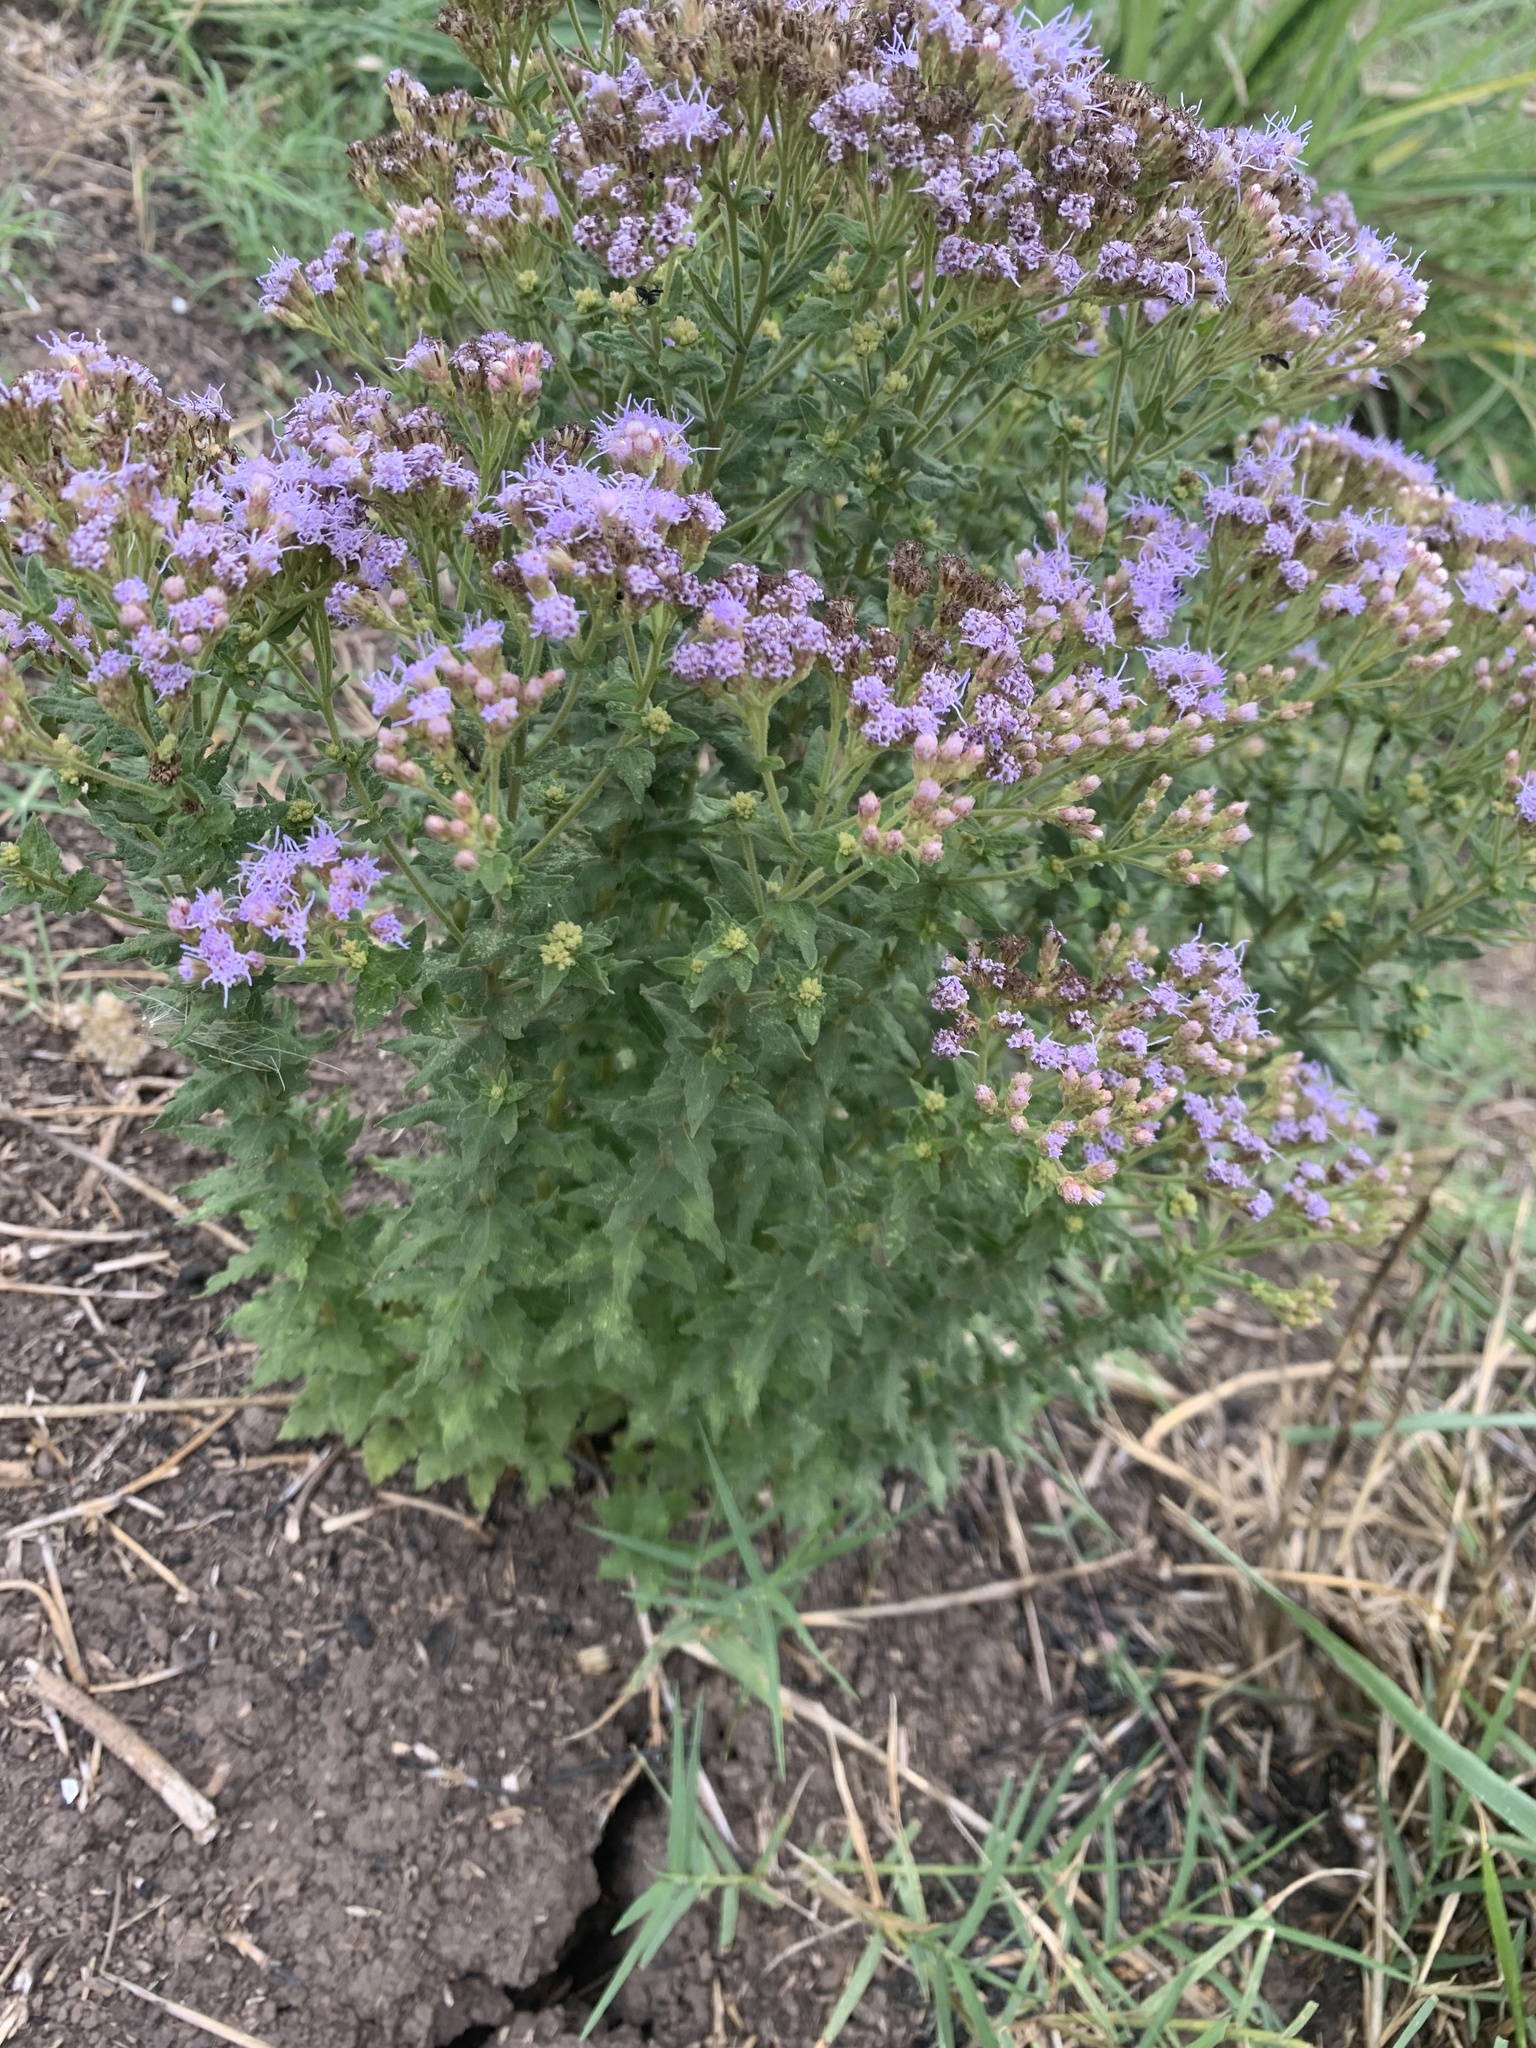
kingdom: Plantae
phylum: Tracheophyta
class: Magnoliopsida
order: Asterales
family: Asteraceae
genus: Chromolaena
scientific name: Chromolaena hirsuta
